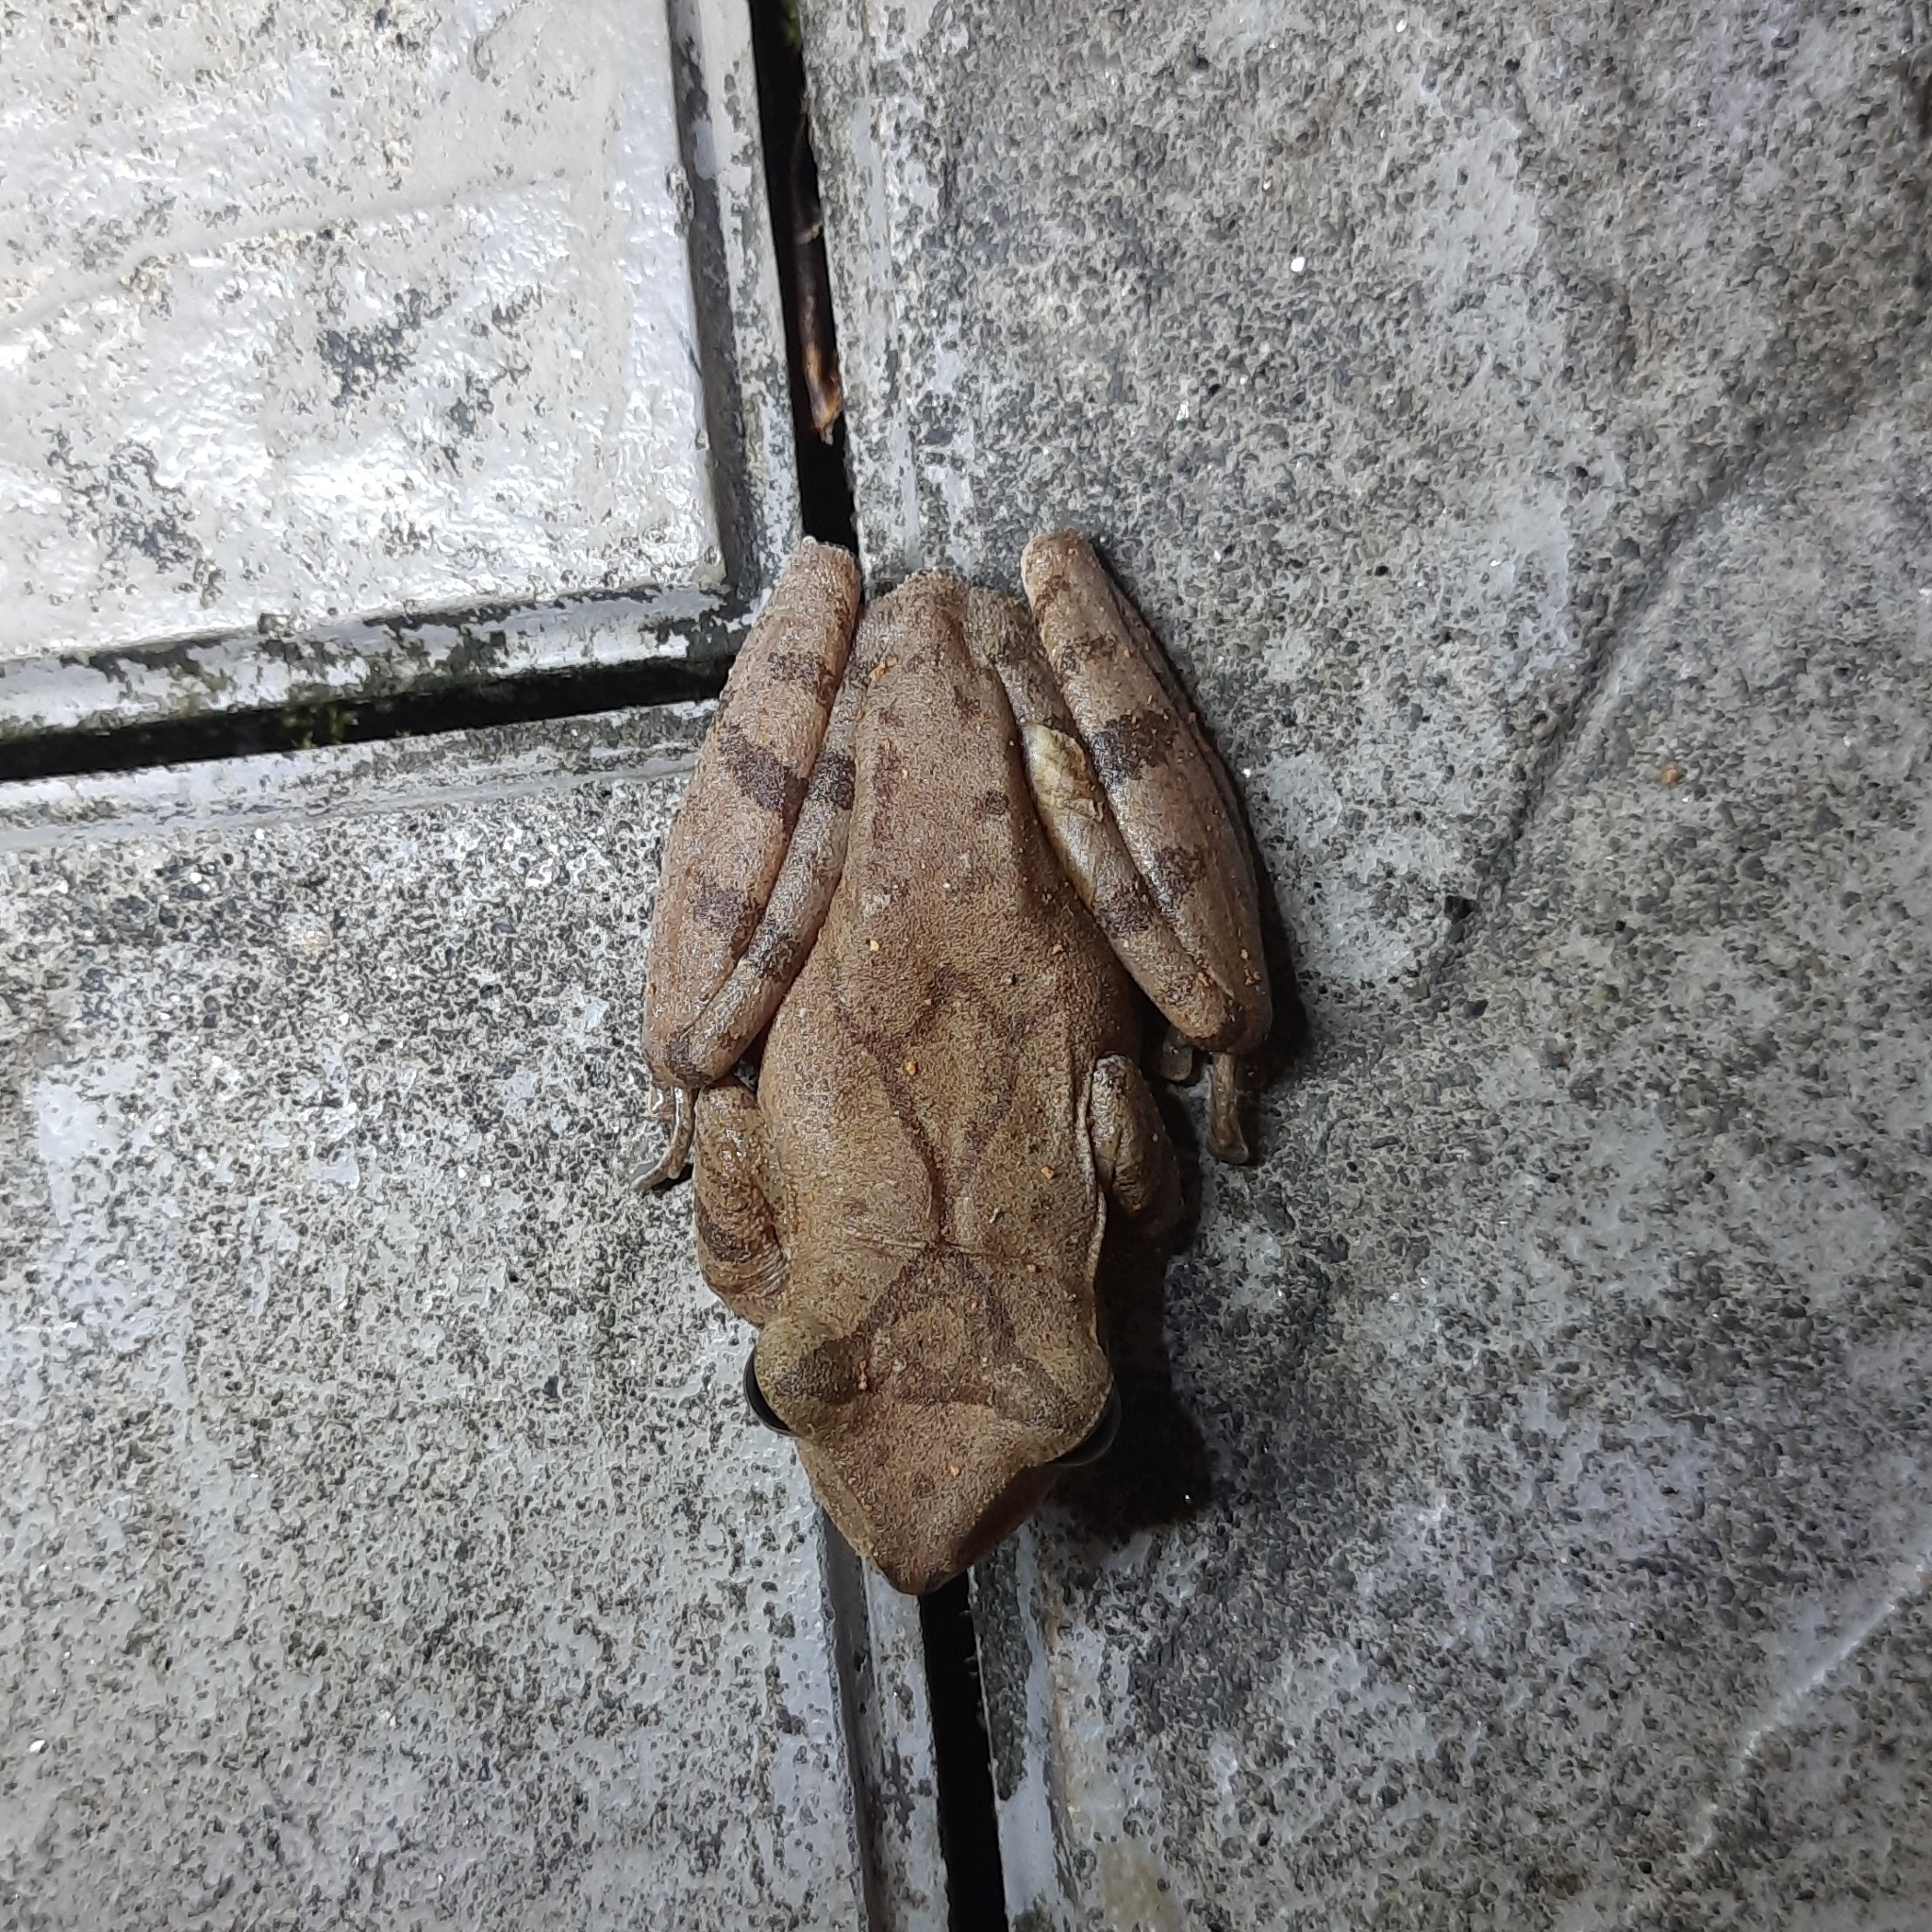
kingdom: Animalia
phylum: Chordata
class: Amphibia
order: Anura
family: Rhacophoridae
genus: Polypedates
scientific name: Polypedates occidentalis
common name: Charpa tree frog
